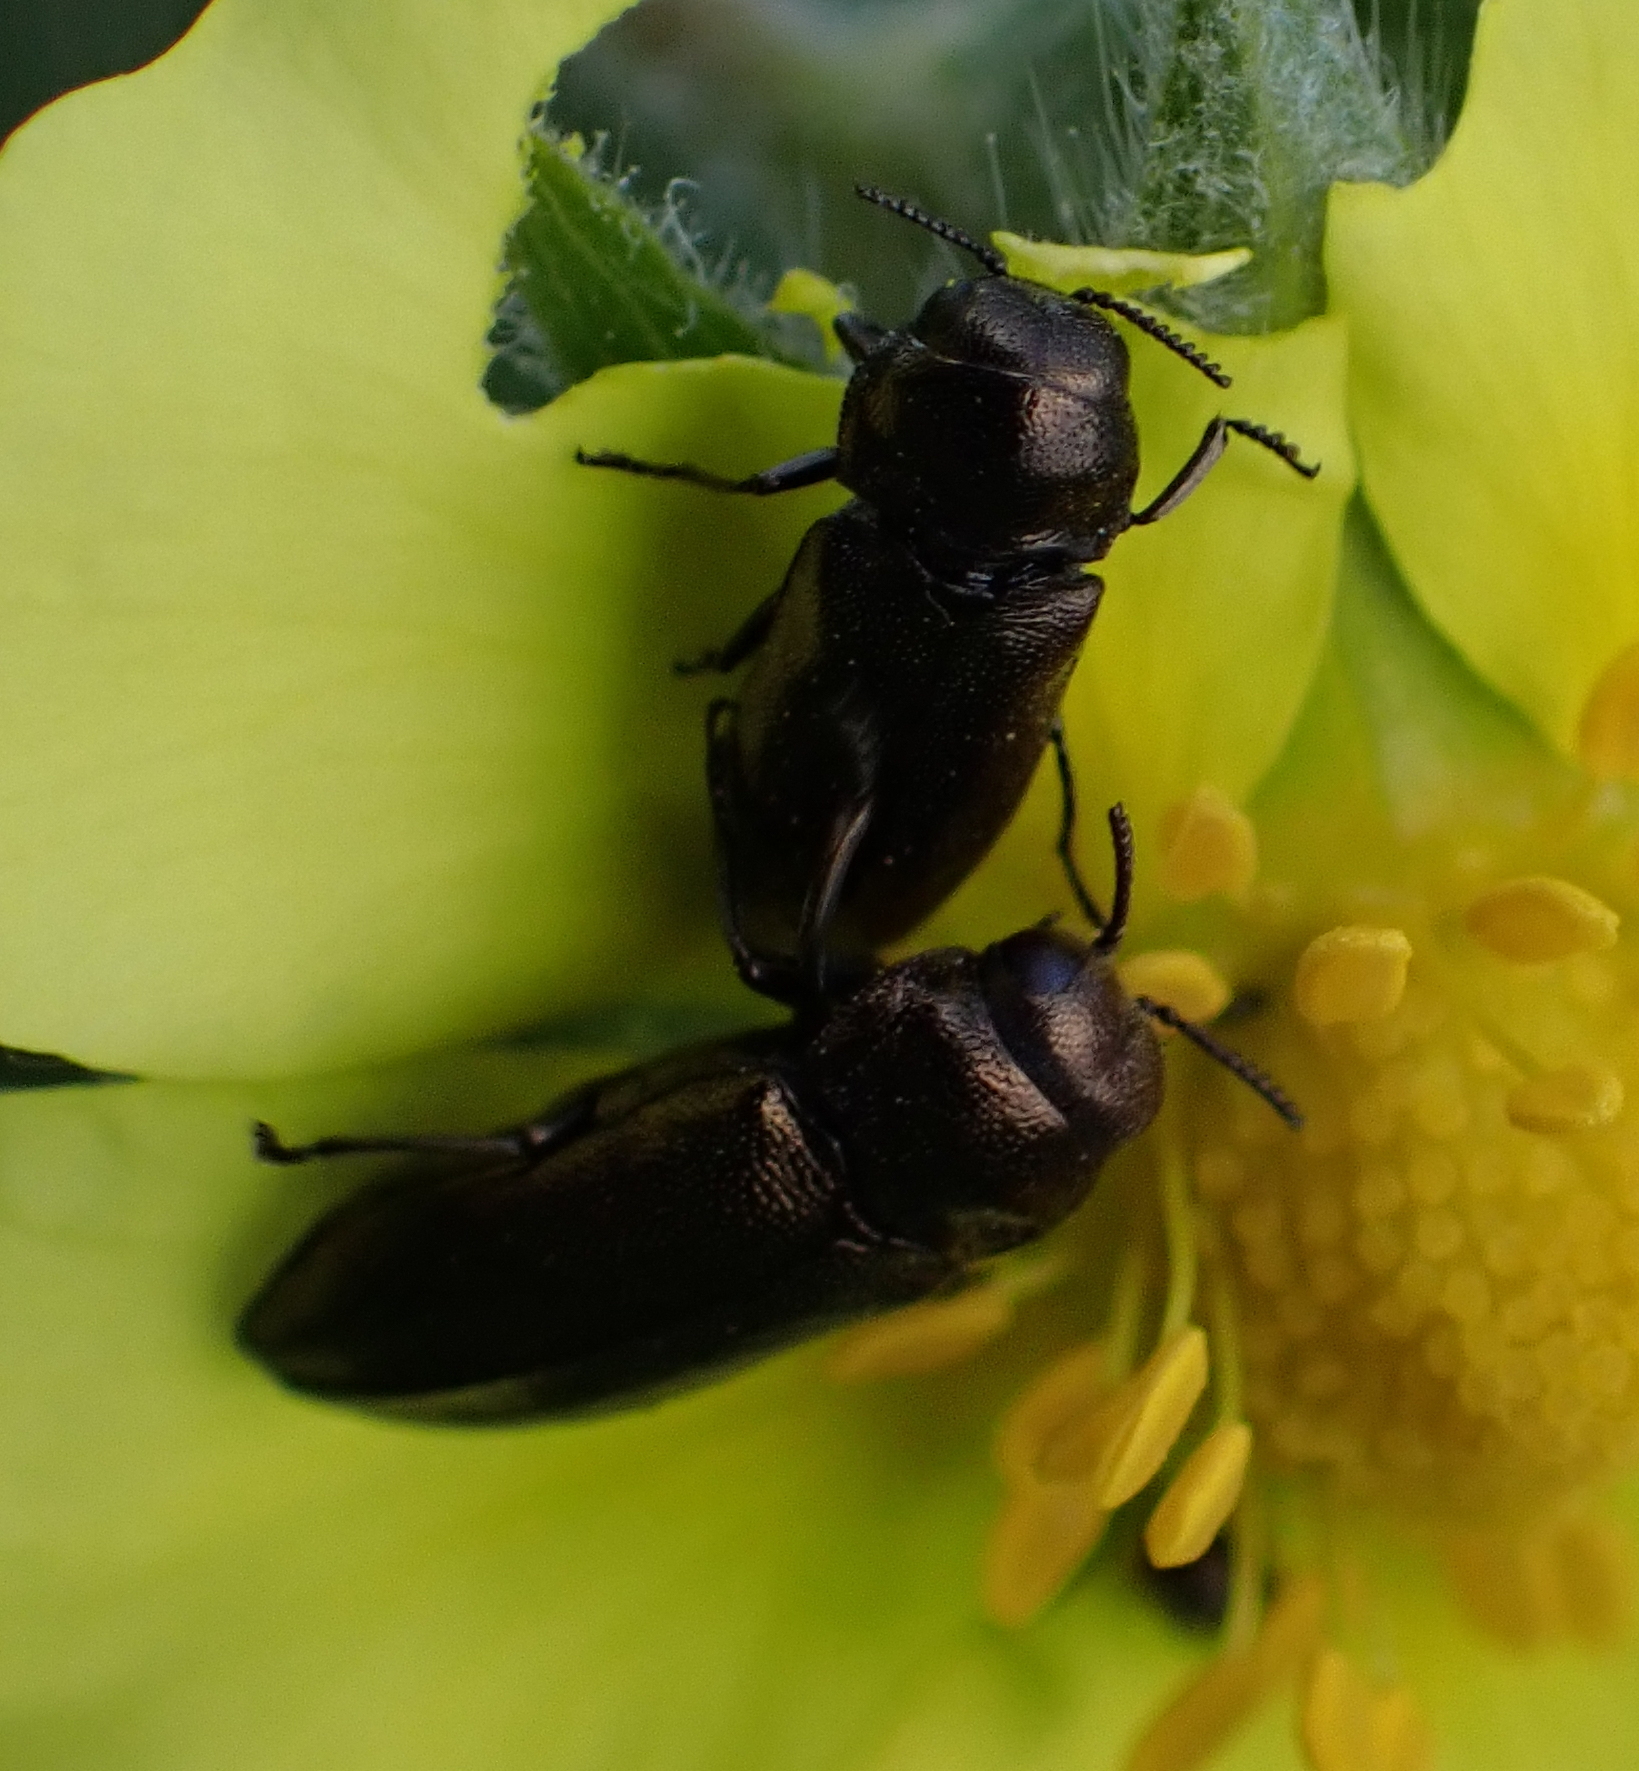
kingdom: Animalia
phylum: Arthropoda
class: Insecta
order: Coleoptera
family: Buprestidae
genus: Coraebus
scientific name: Coraebus elatus
